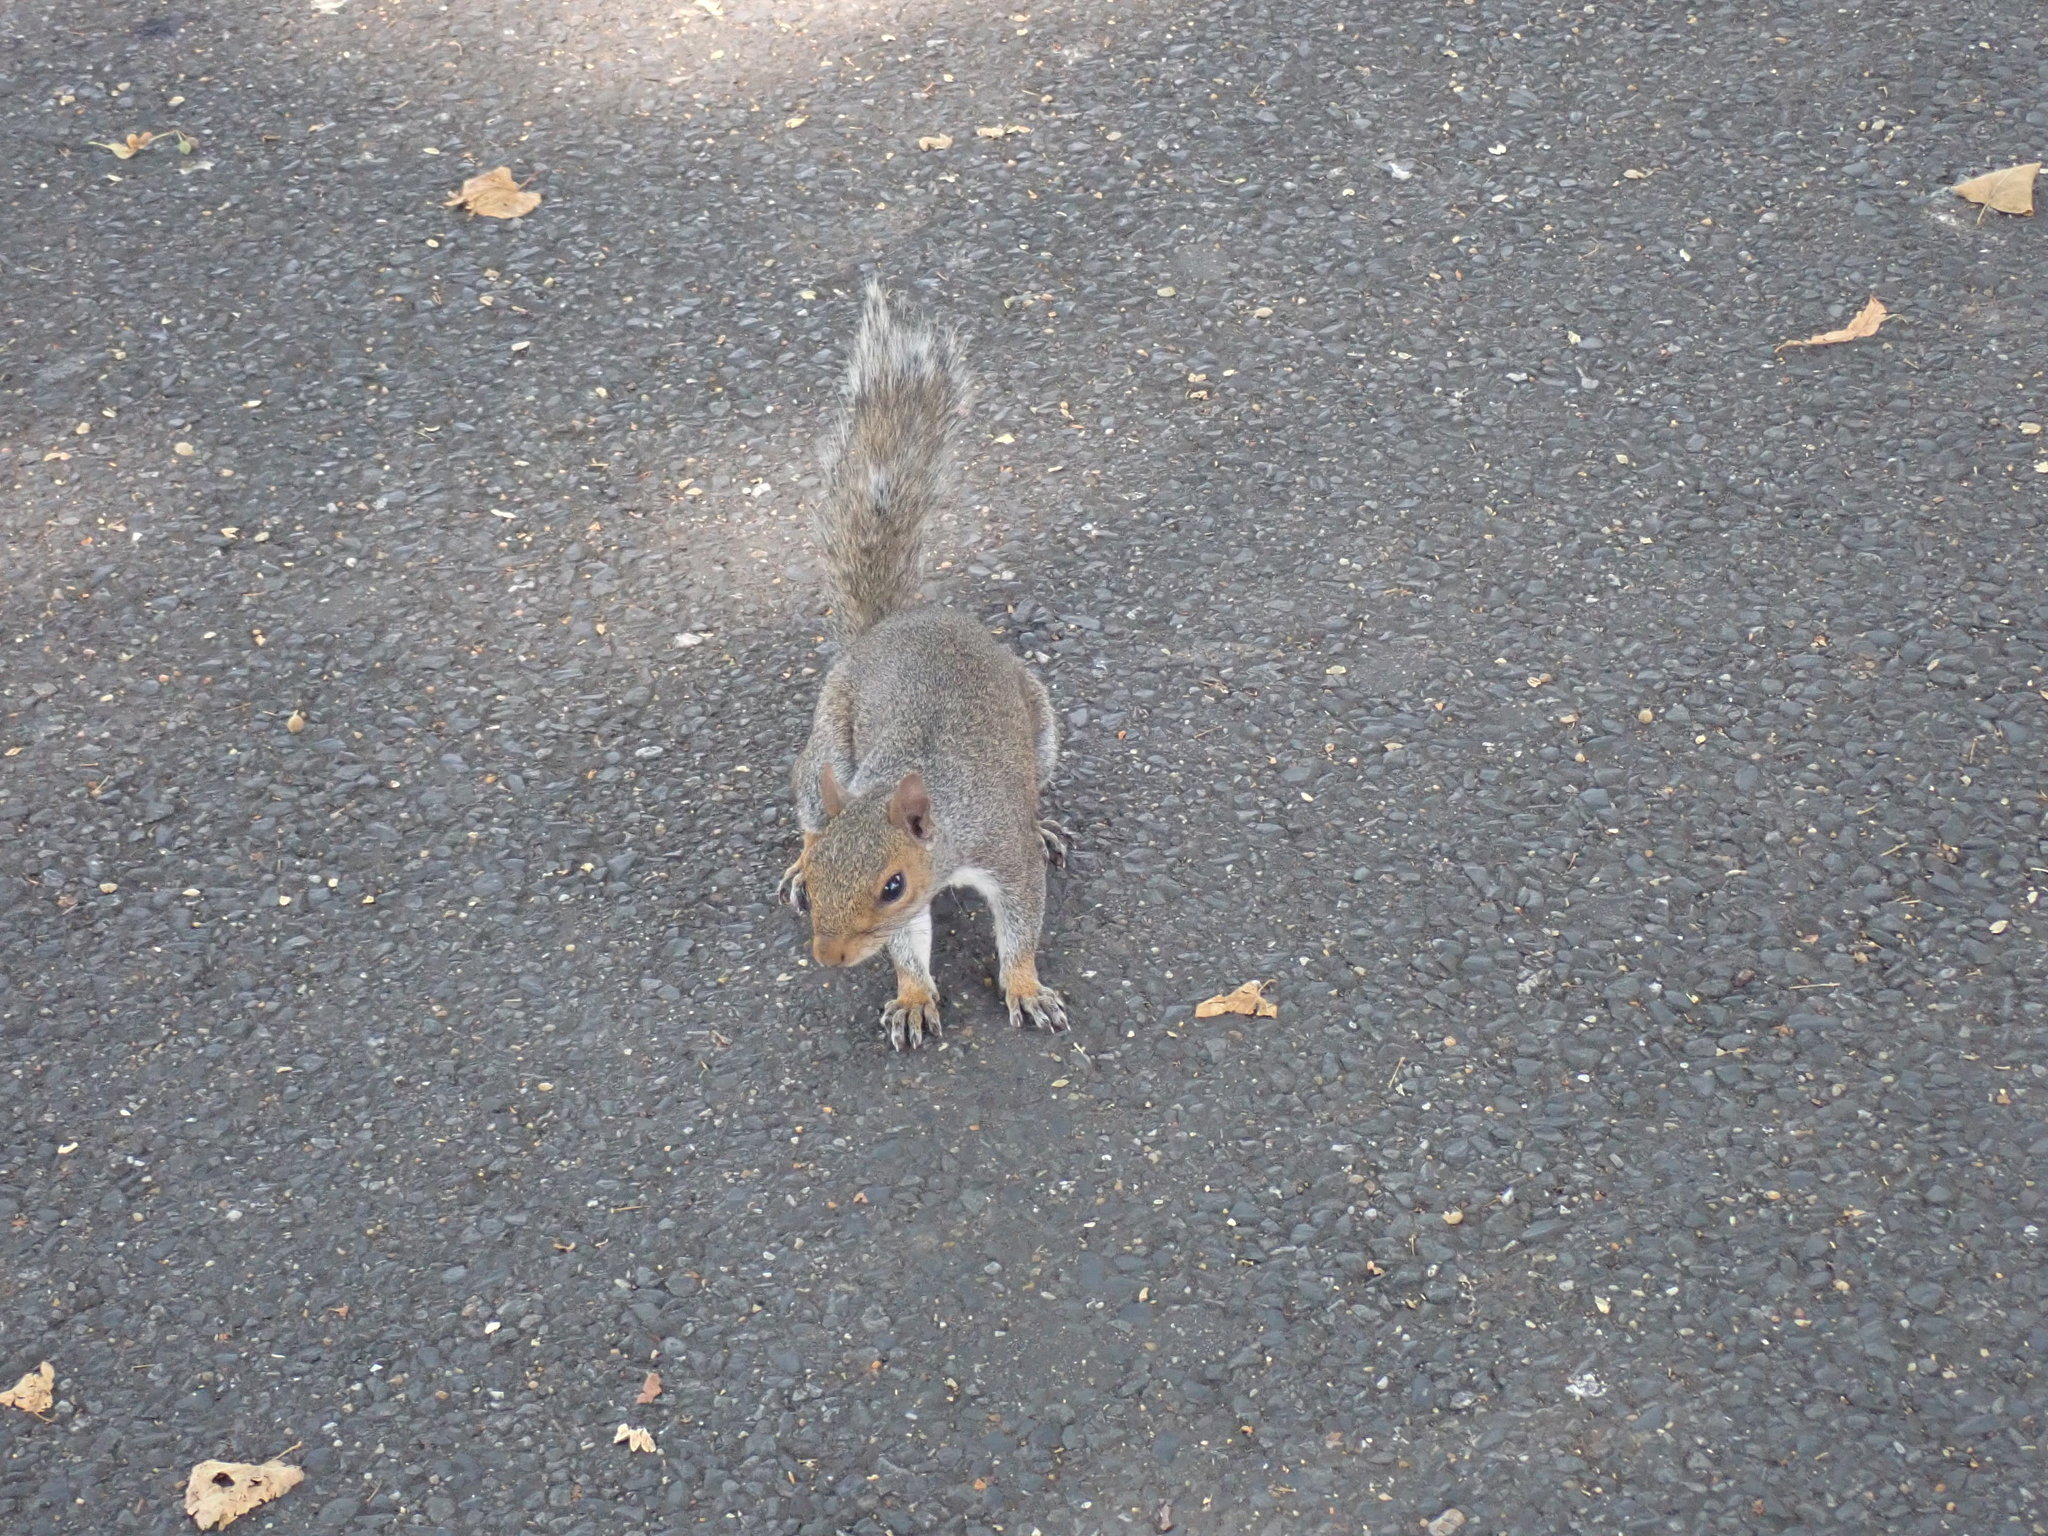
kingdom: Animalia
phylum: Chordata
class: Mammalia
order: Rodentia
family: Sciuridae
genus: Sciurus
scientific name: Sciurus carolinensis
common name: Eastern gray squirrel
